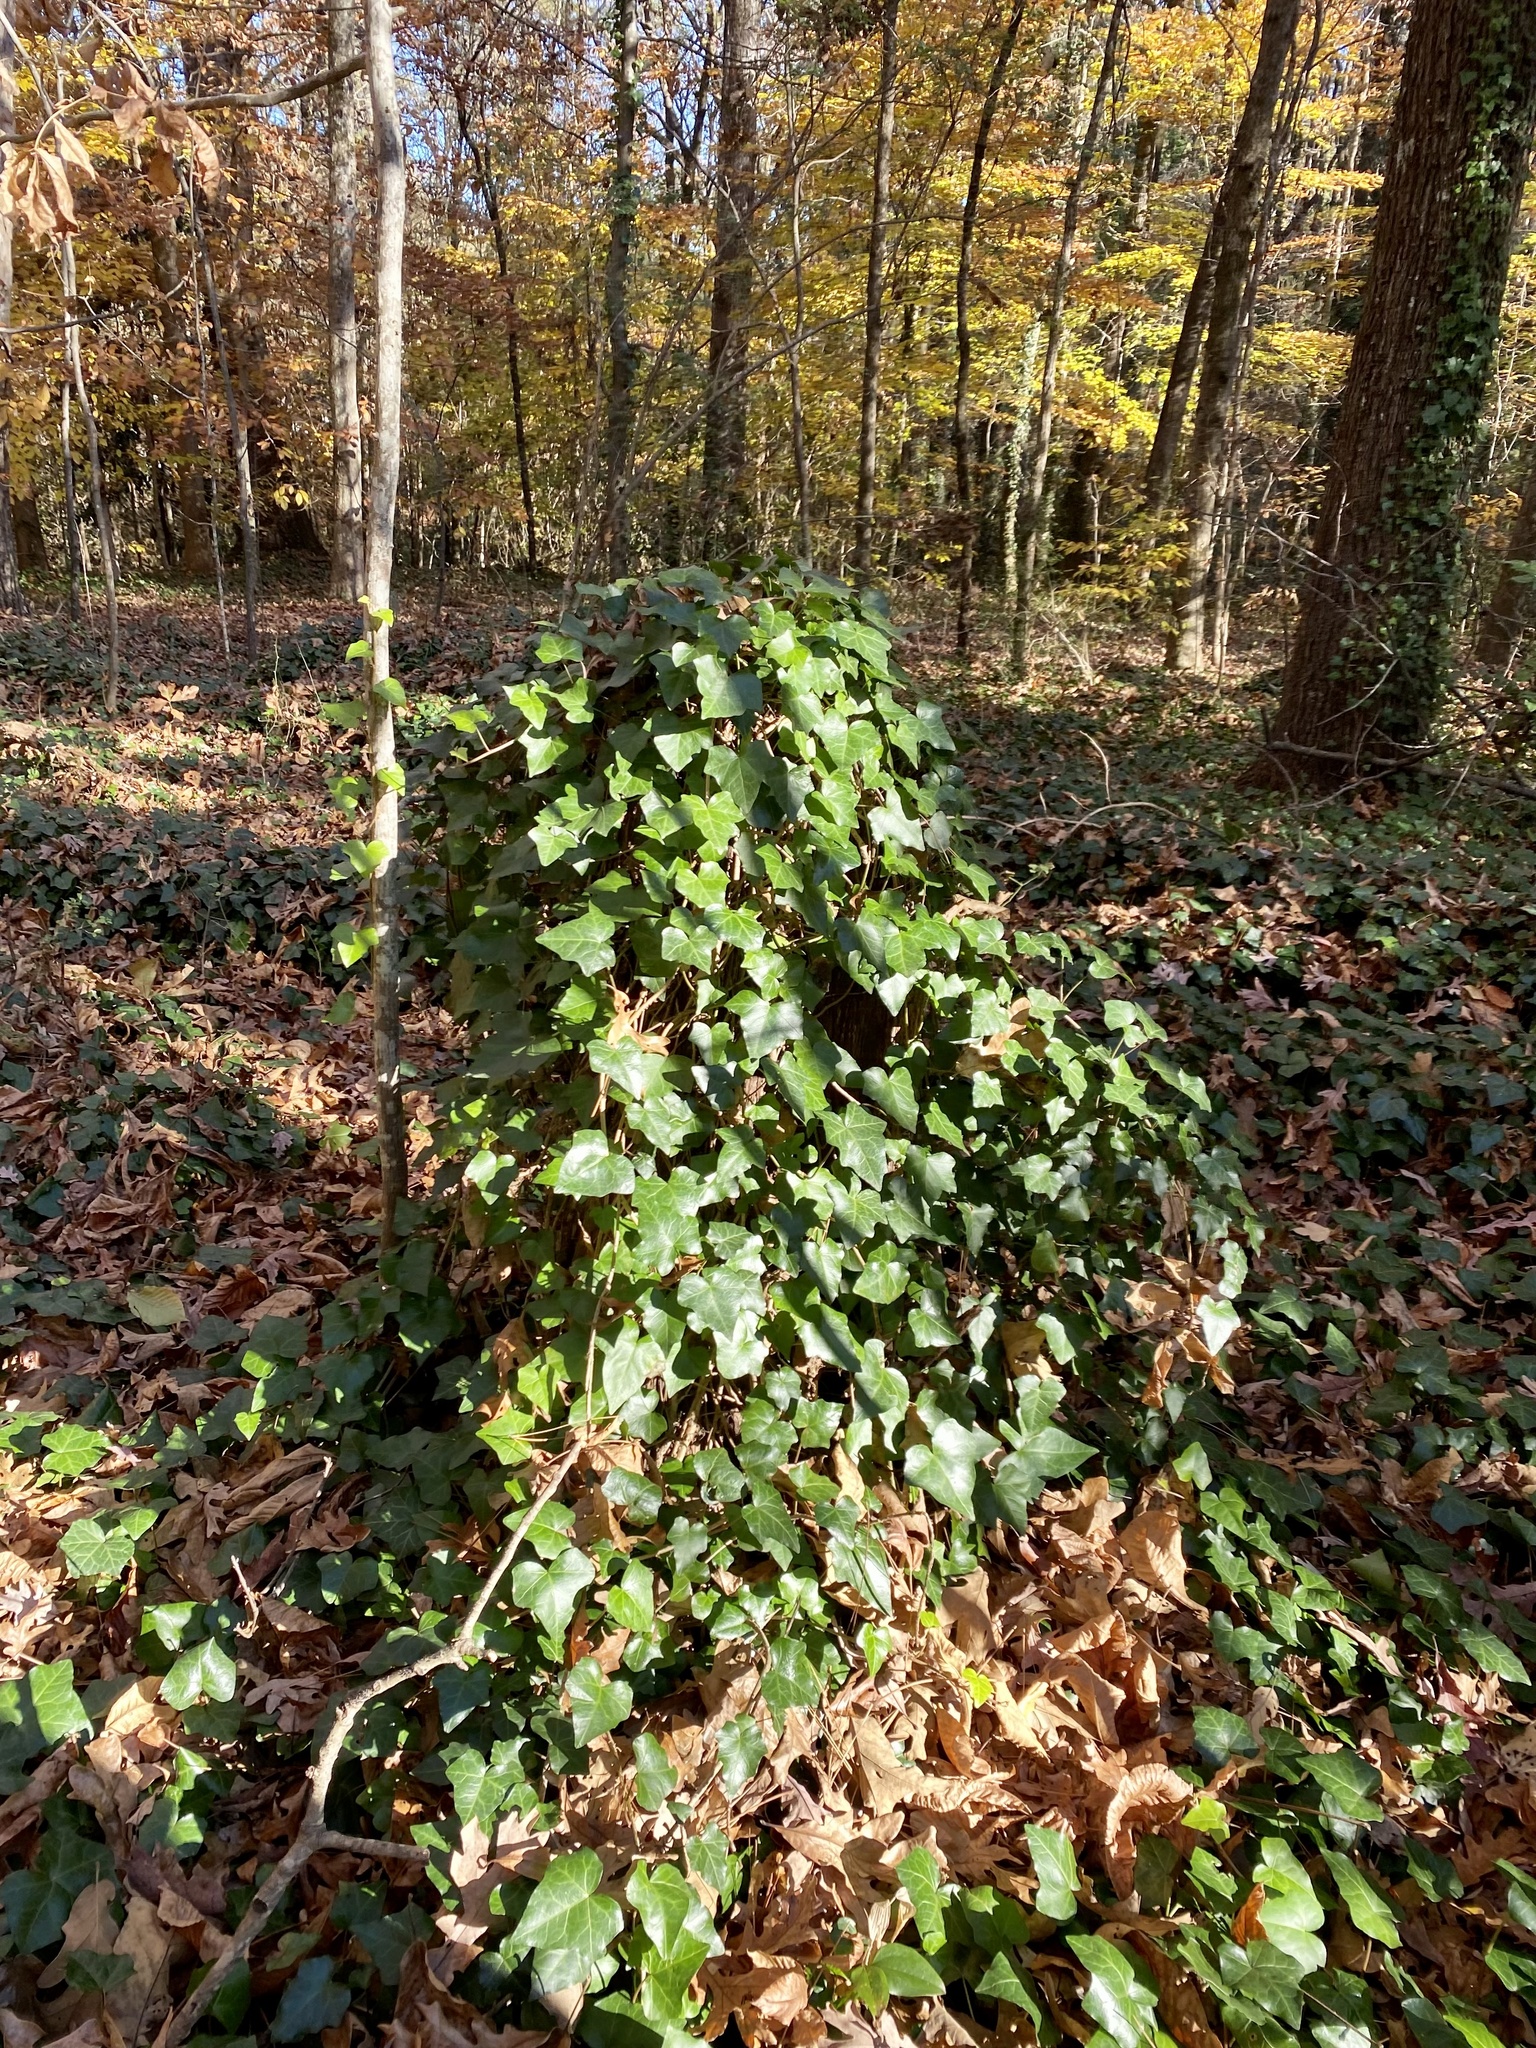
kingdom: Plantae
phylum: Tracheophyta
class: Magnoliopsida
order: Apiales
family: Araliaceae
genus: Hedera
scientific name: Hedera helix
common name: Ivy
